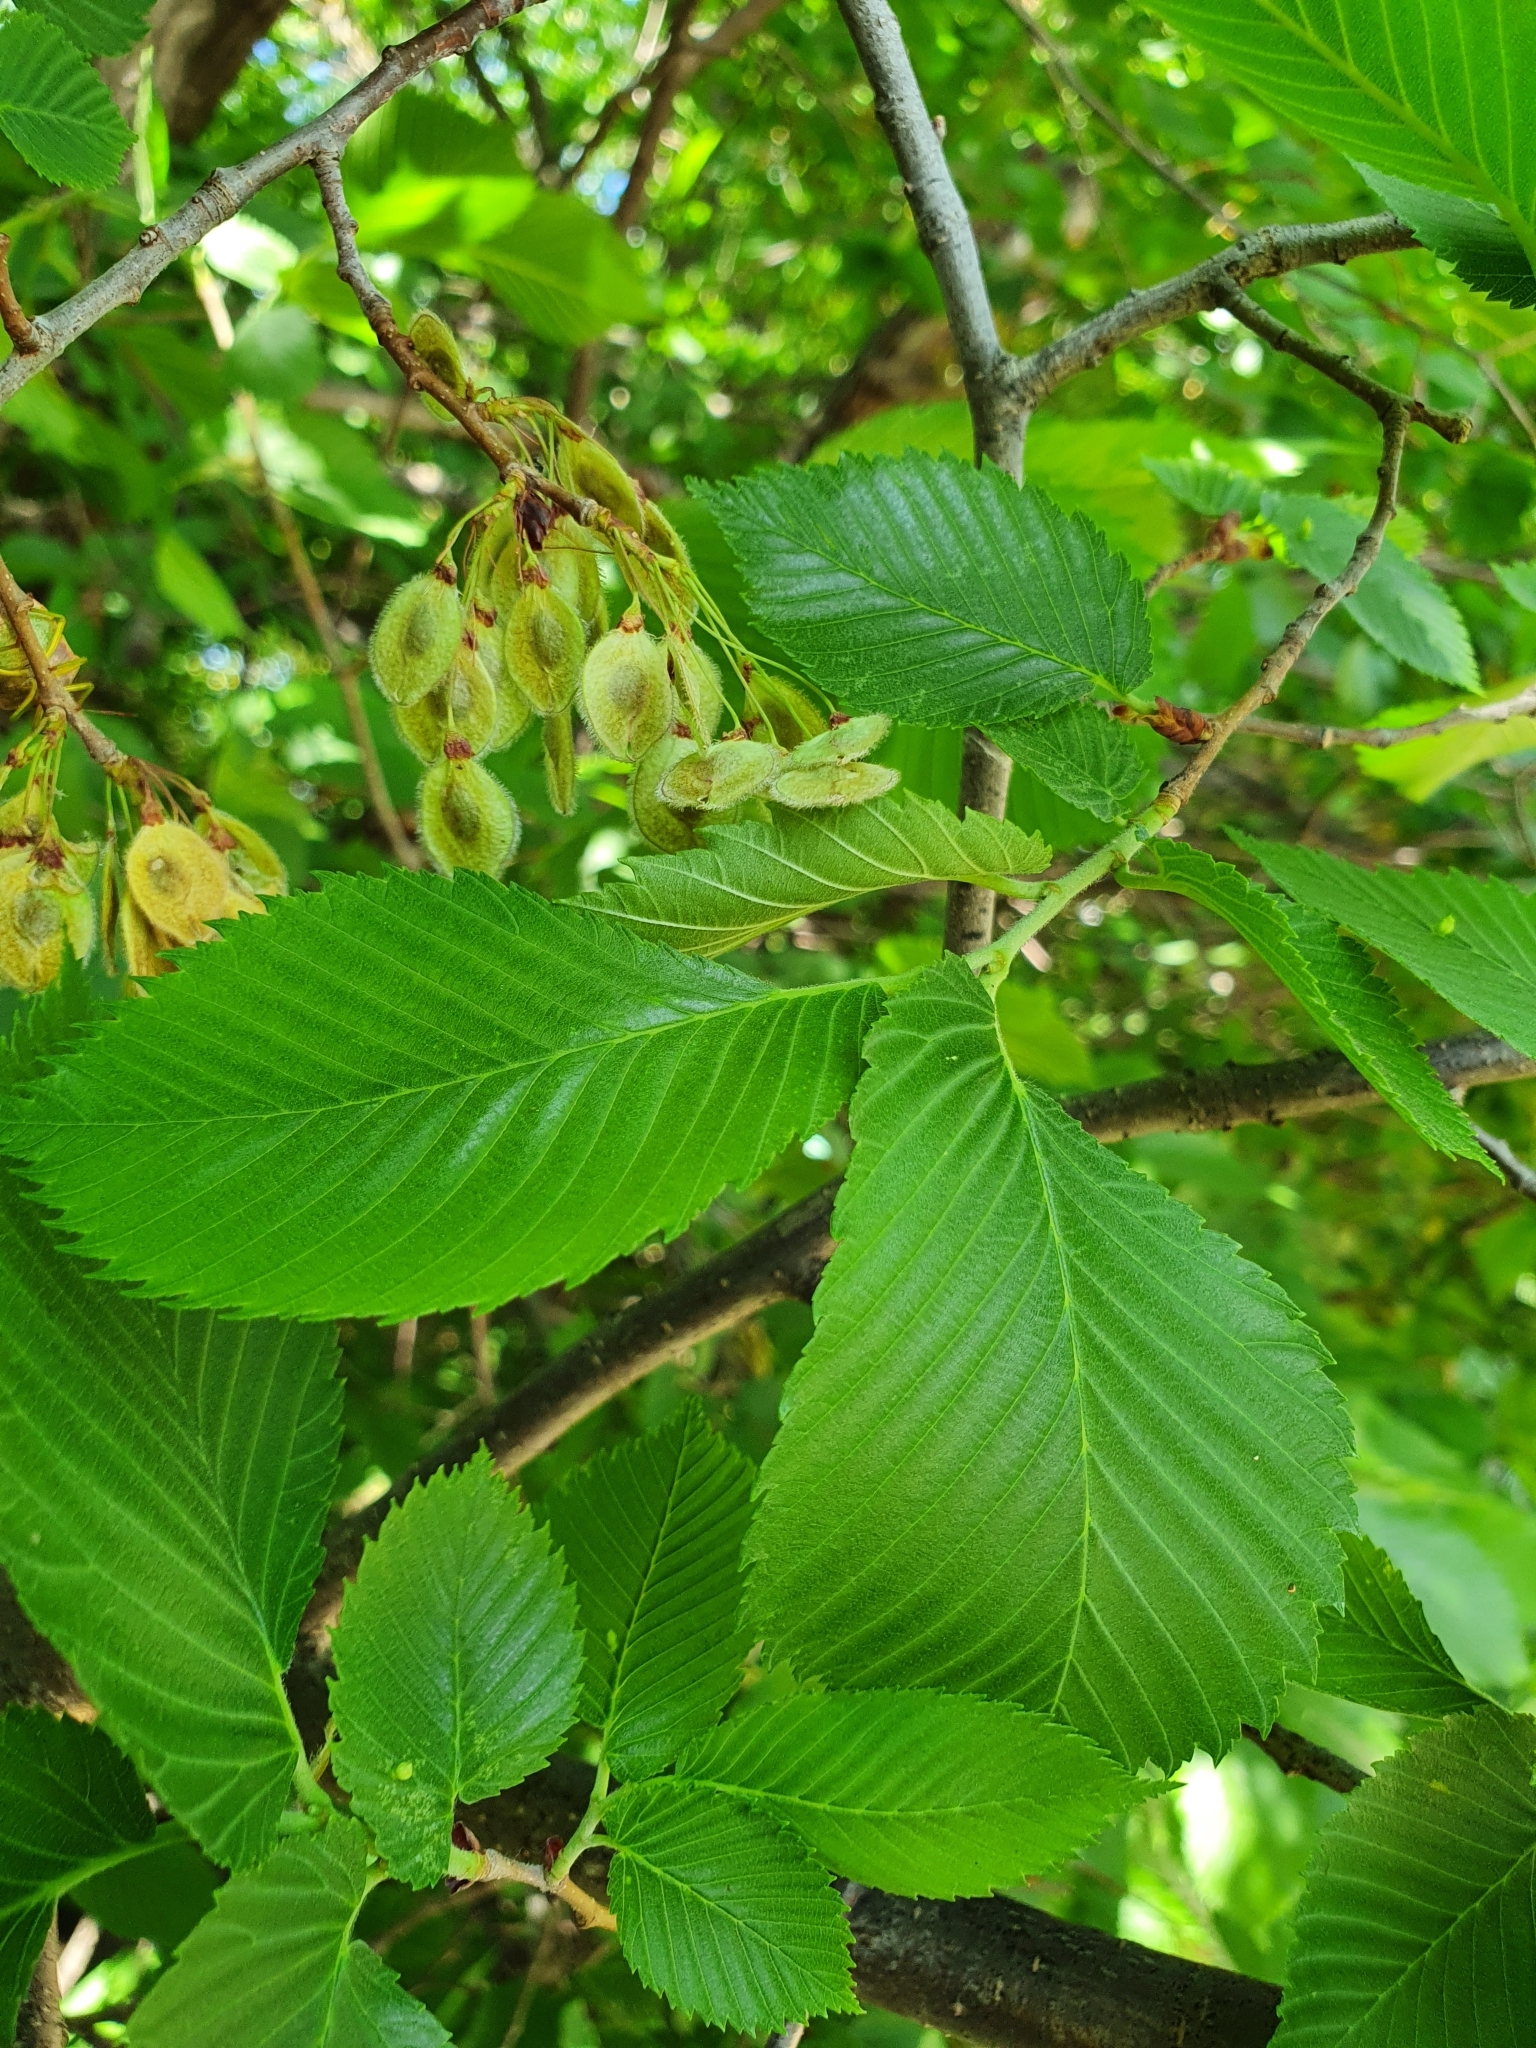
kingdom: Plantae
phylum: Tracheophyta
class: Magnoliopsida
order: Rosales
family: Ulmaceae
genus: Ulmus
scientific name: Ulmus laevis
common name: European white-elm
